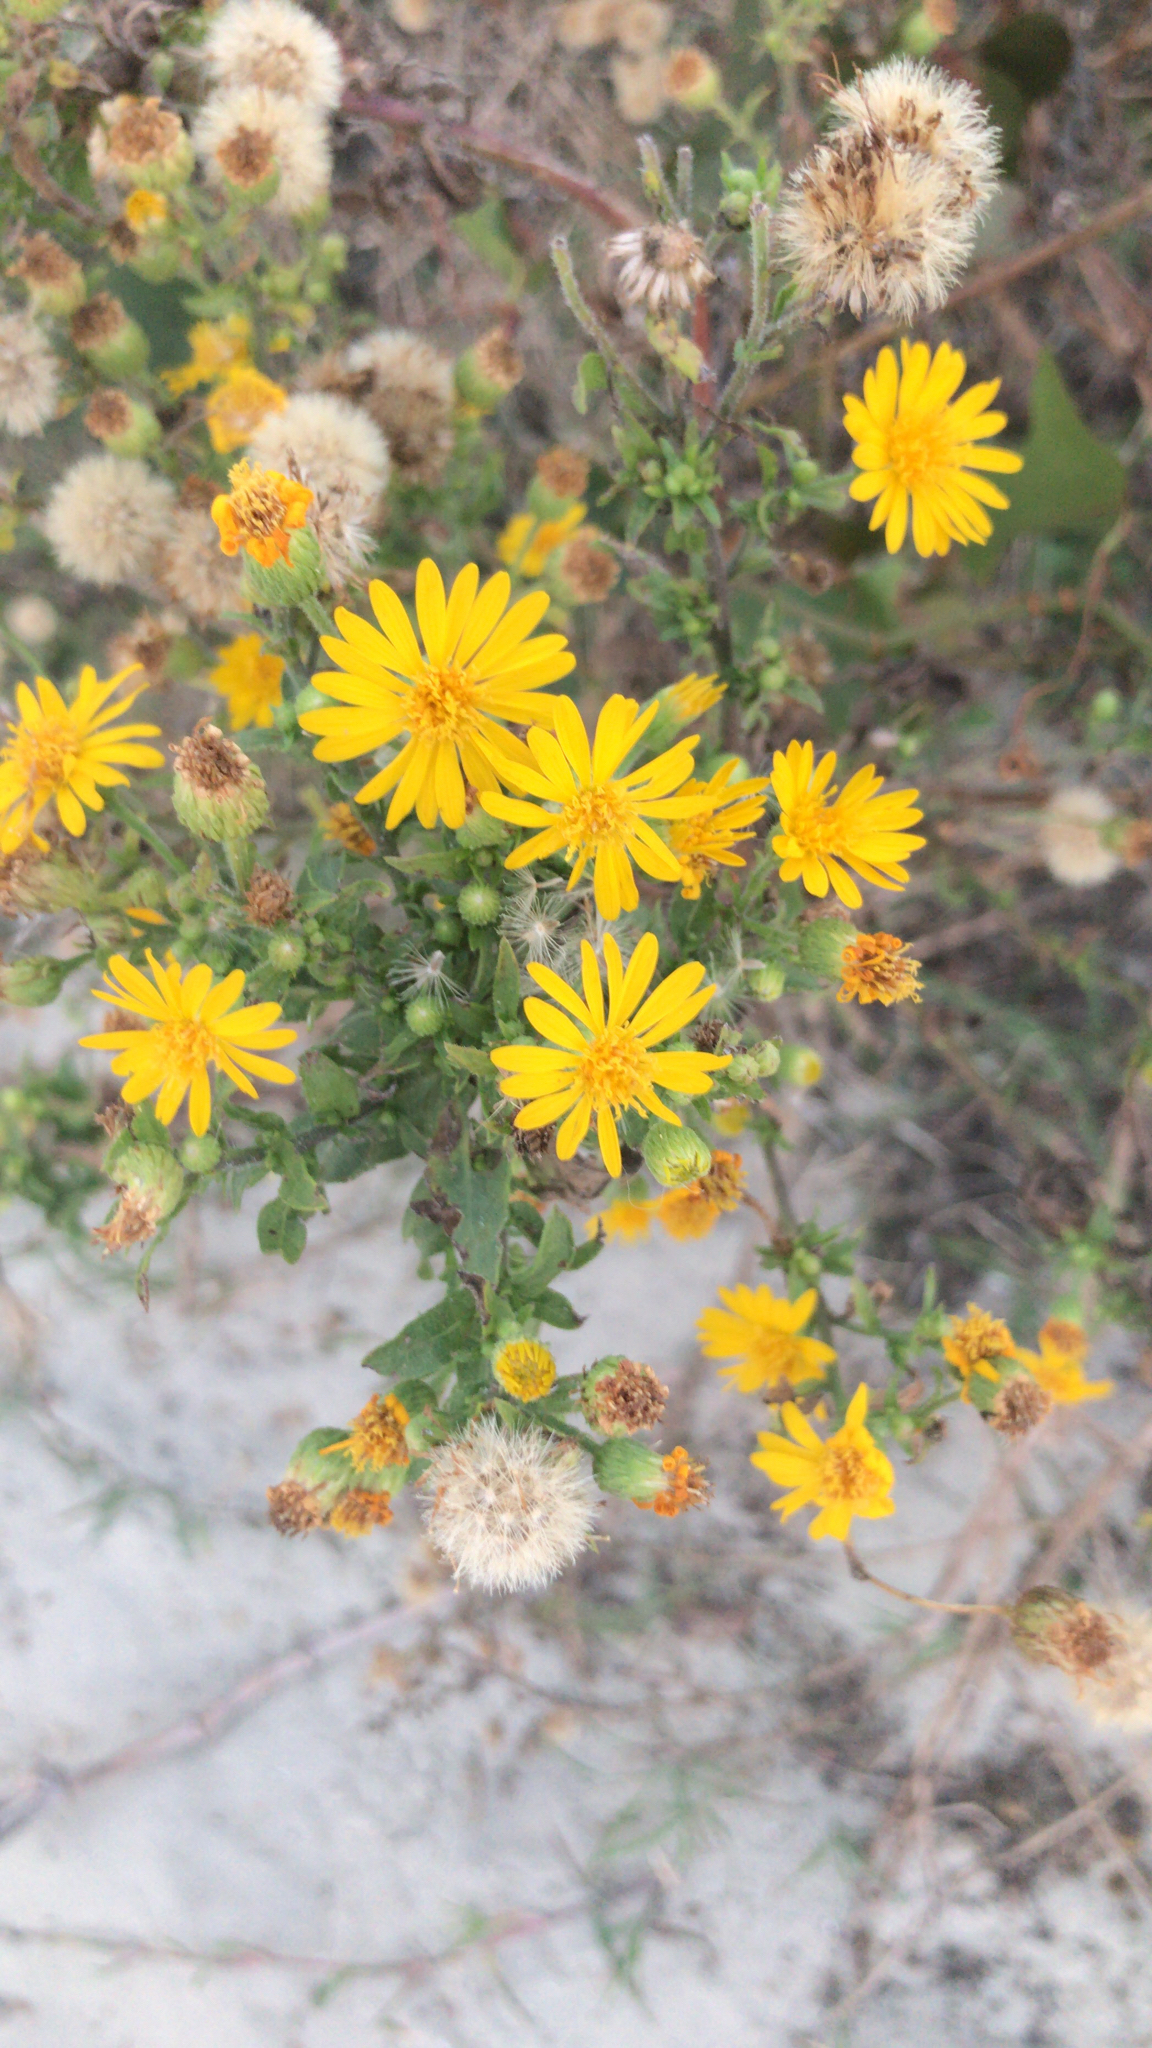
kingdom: Plantae
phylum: Tracheophyta
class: Magnoliopsida
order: Asterales
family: Asteraceae
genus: Heterotheca
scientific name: Heterotheca subaxillaris
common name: Camphorweed
